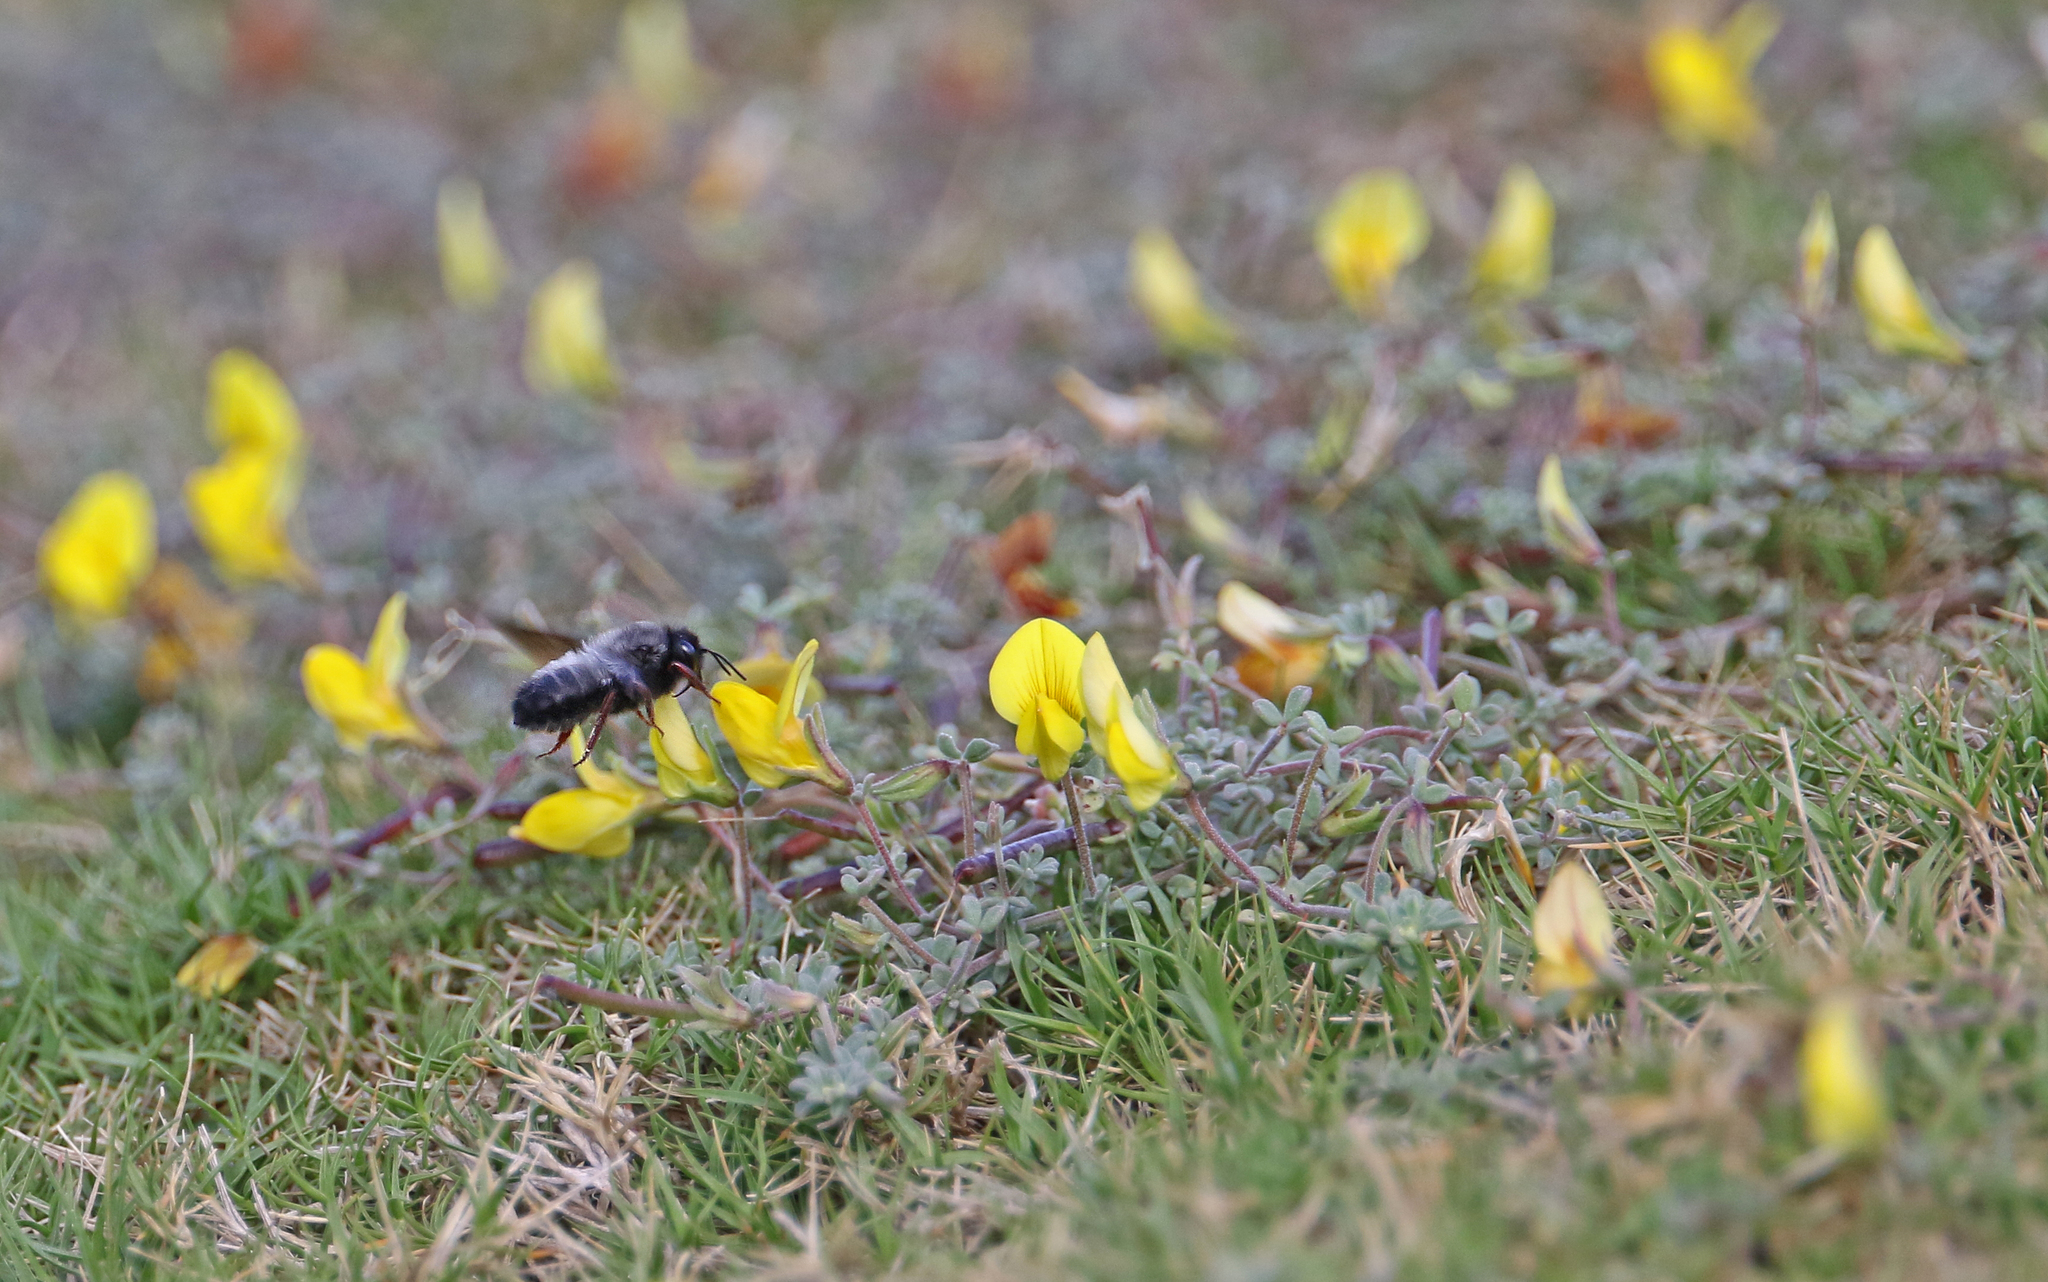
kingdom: Animalia
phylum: Arthropoda
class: Insecta
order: Hymenoptera
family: Megachilidae
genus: Megachile
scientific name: Megachile canescens
